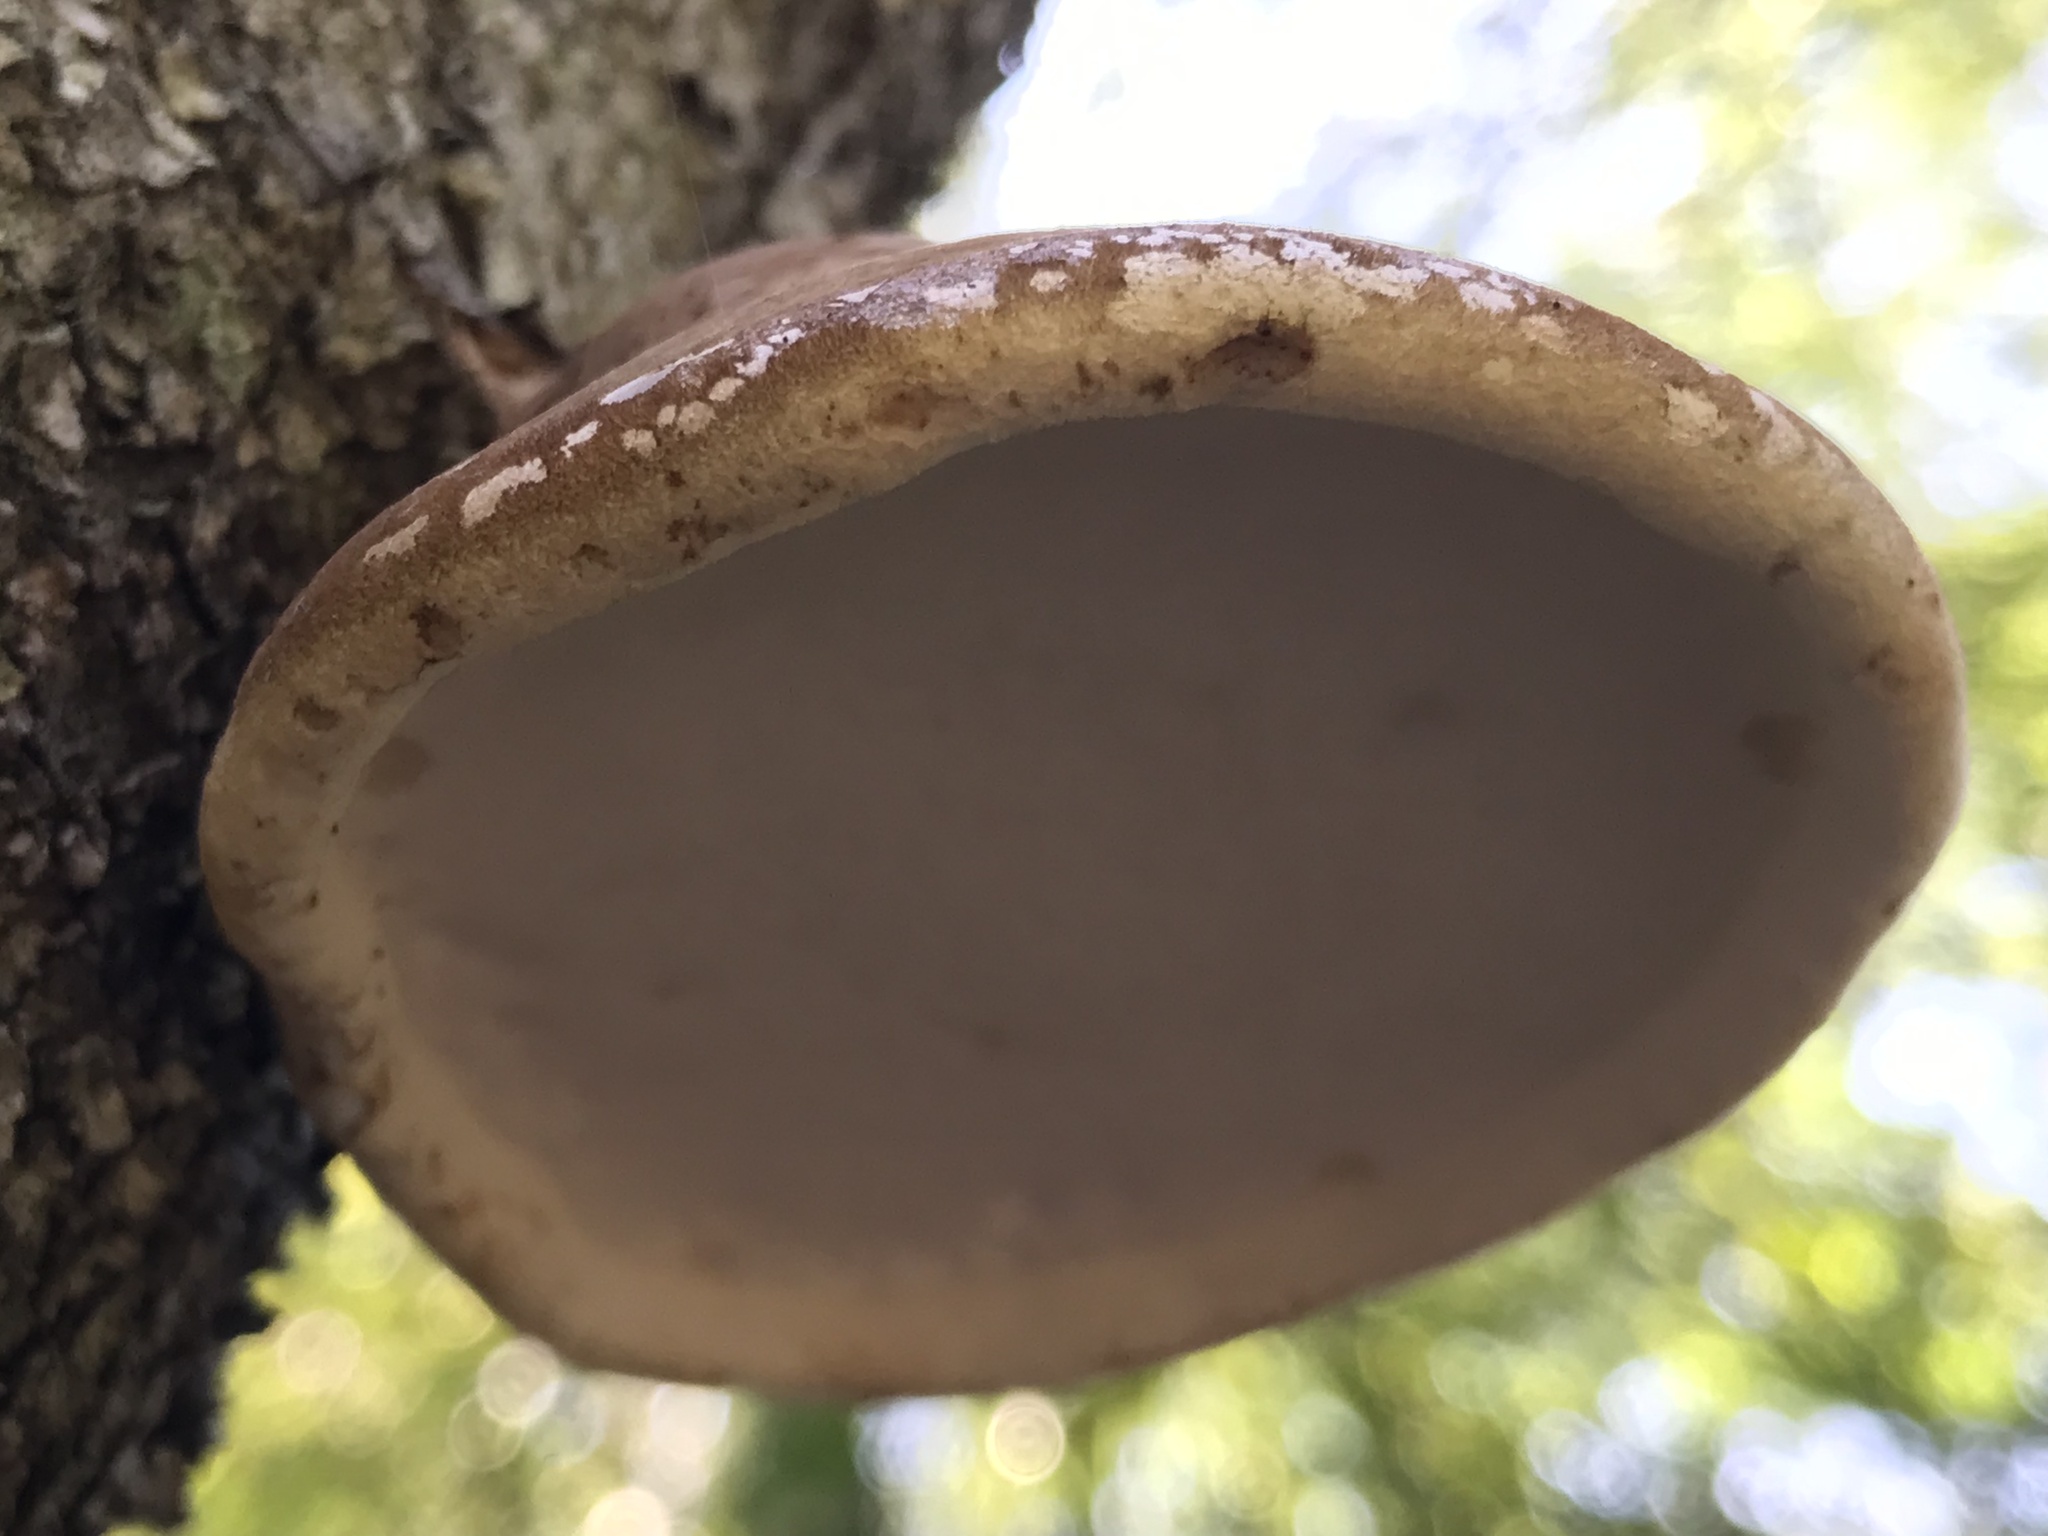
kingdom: Fungi
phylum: Basidiomycota
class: Agaricomycetes
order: Polyporales
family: Fomitopsidaceae
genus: Fomitopsis
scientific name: Fomitopsis betulina
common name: Birch polypore
